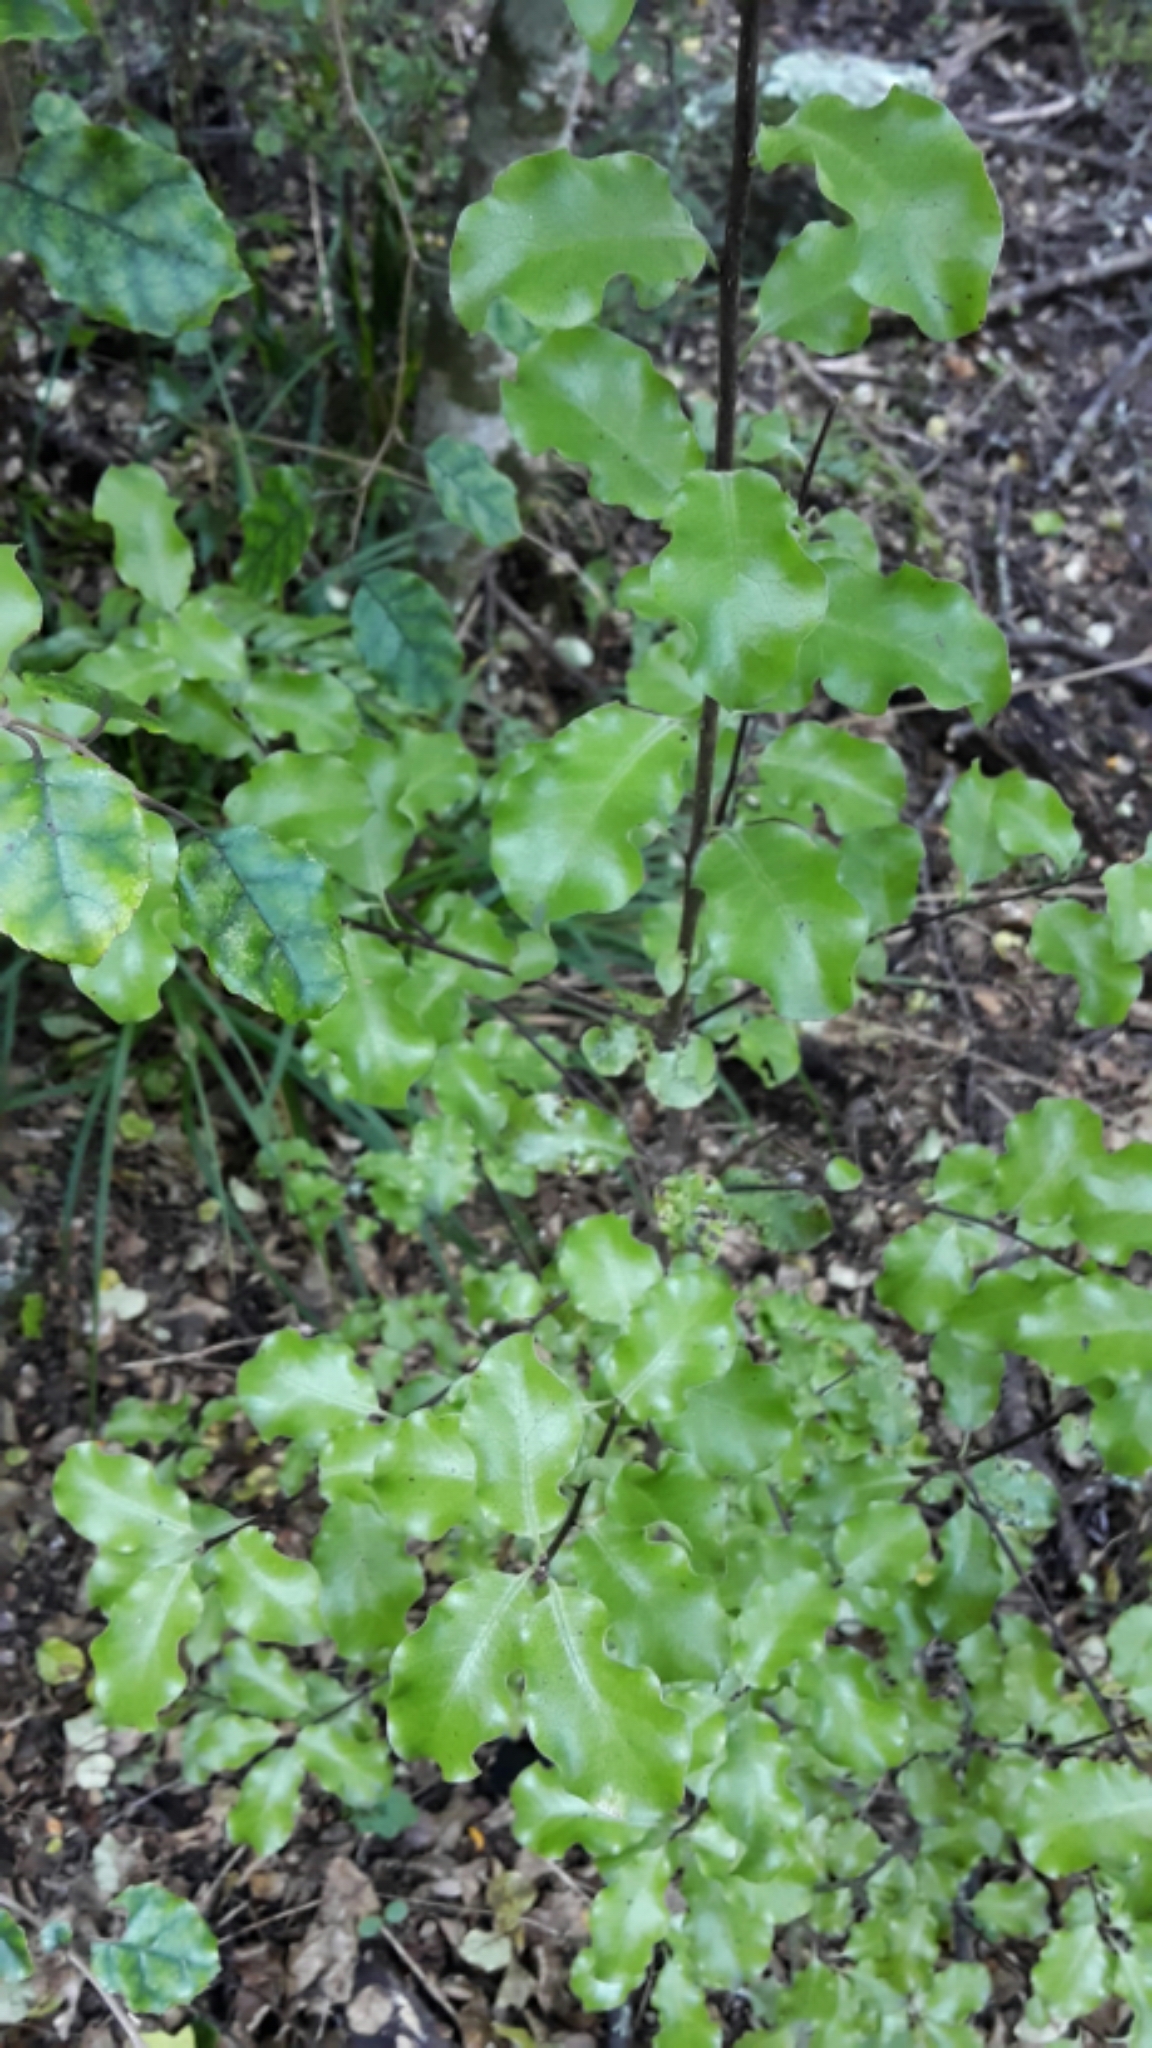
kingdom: Plantae
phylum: Tracheophyta
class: Magnoliopsida
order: Apiales
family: Pittosporaceae
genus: Pittosporum
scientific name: Pittosporum tenuifolium
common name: Kohuhu
